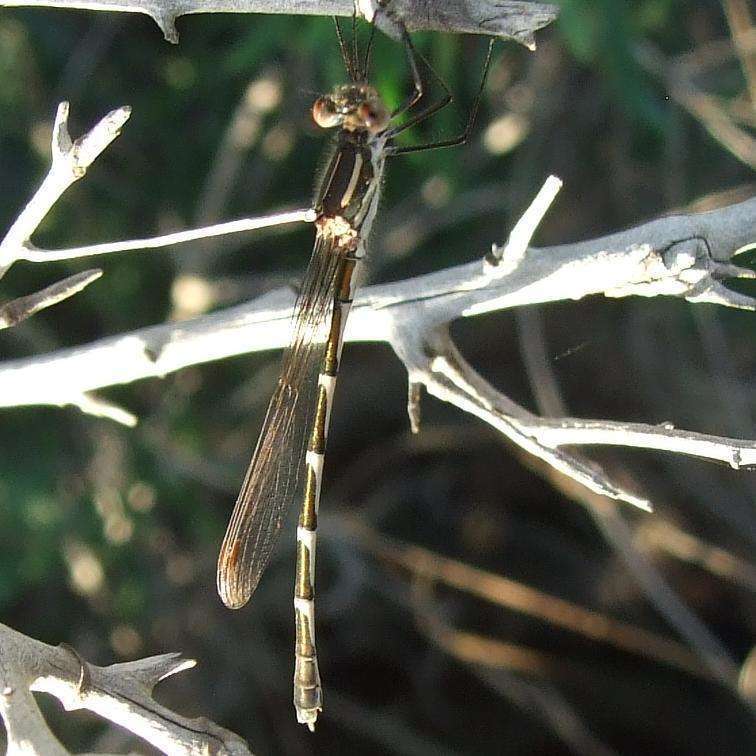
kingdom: Animalia
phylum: Arthropoda
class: Insecta
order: Odonata
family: Lestidae
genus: Austrolestes
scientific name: Austrolestes annulosus
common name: Blue ringtail
